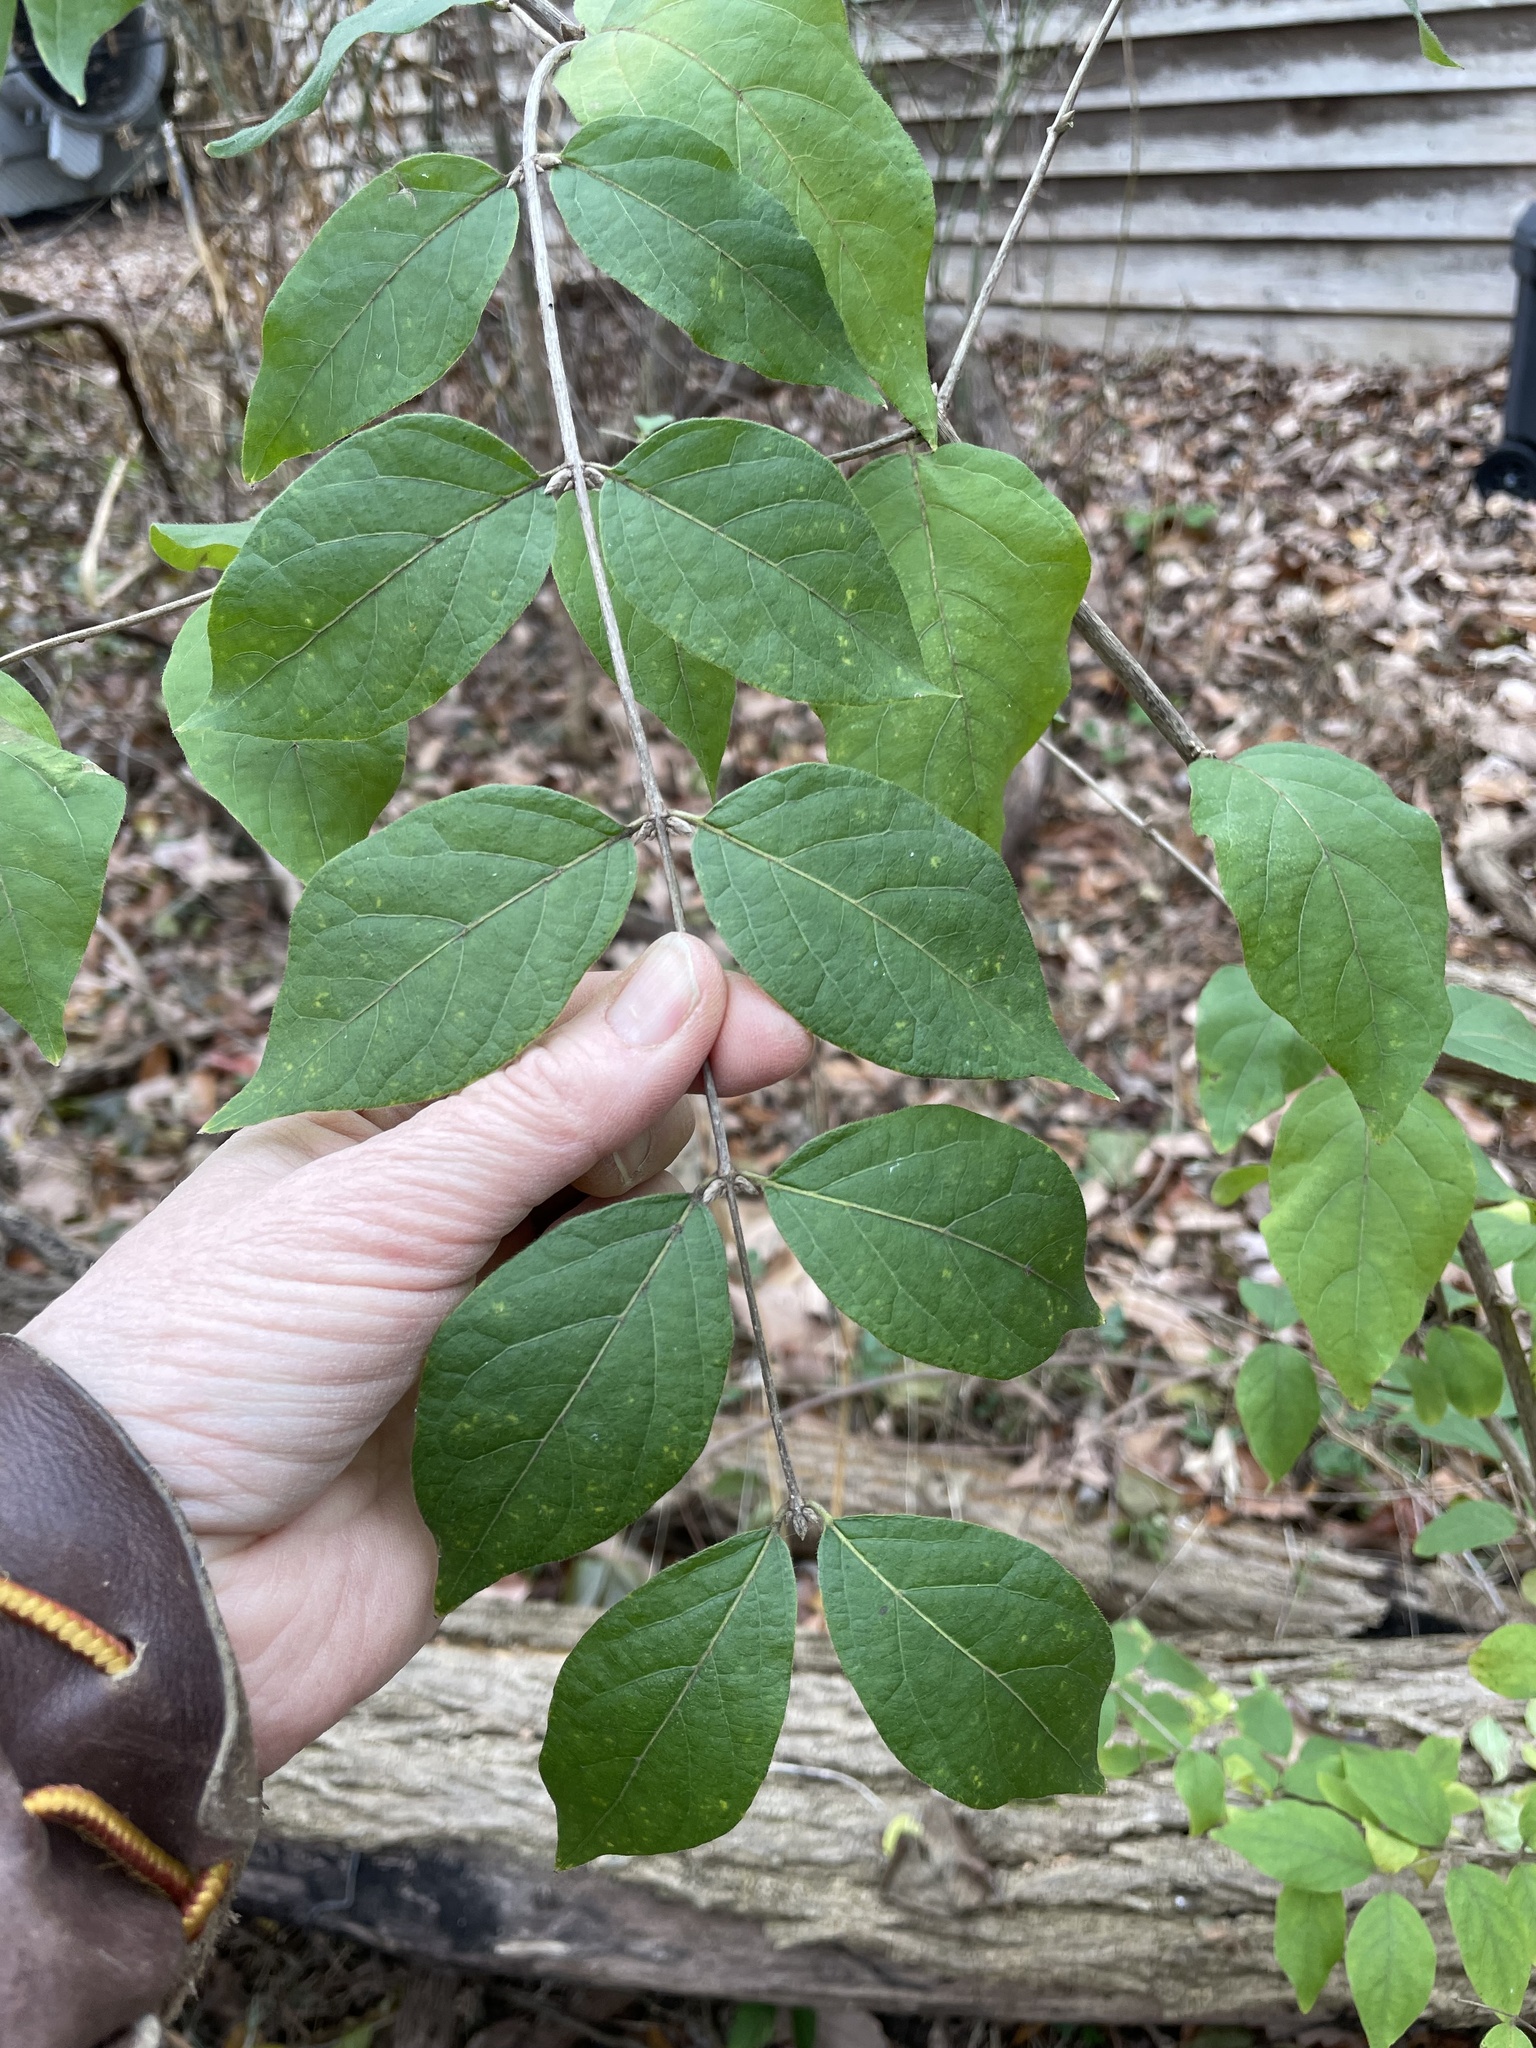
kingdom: Plantae
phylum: Tracheophyta
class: Magnoliopsida
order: Dipsacales
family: Caprifoliaceae
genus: Lonicera
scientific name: Lonicera maackii
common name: Amur honeysuckle
